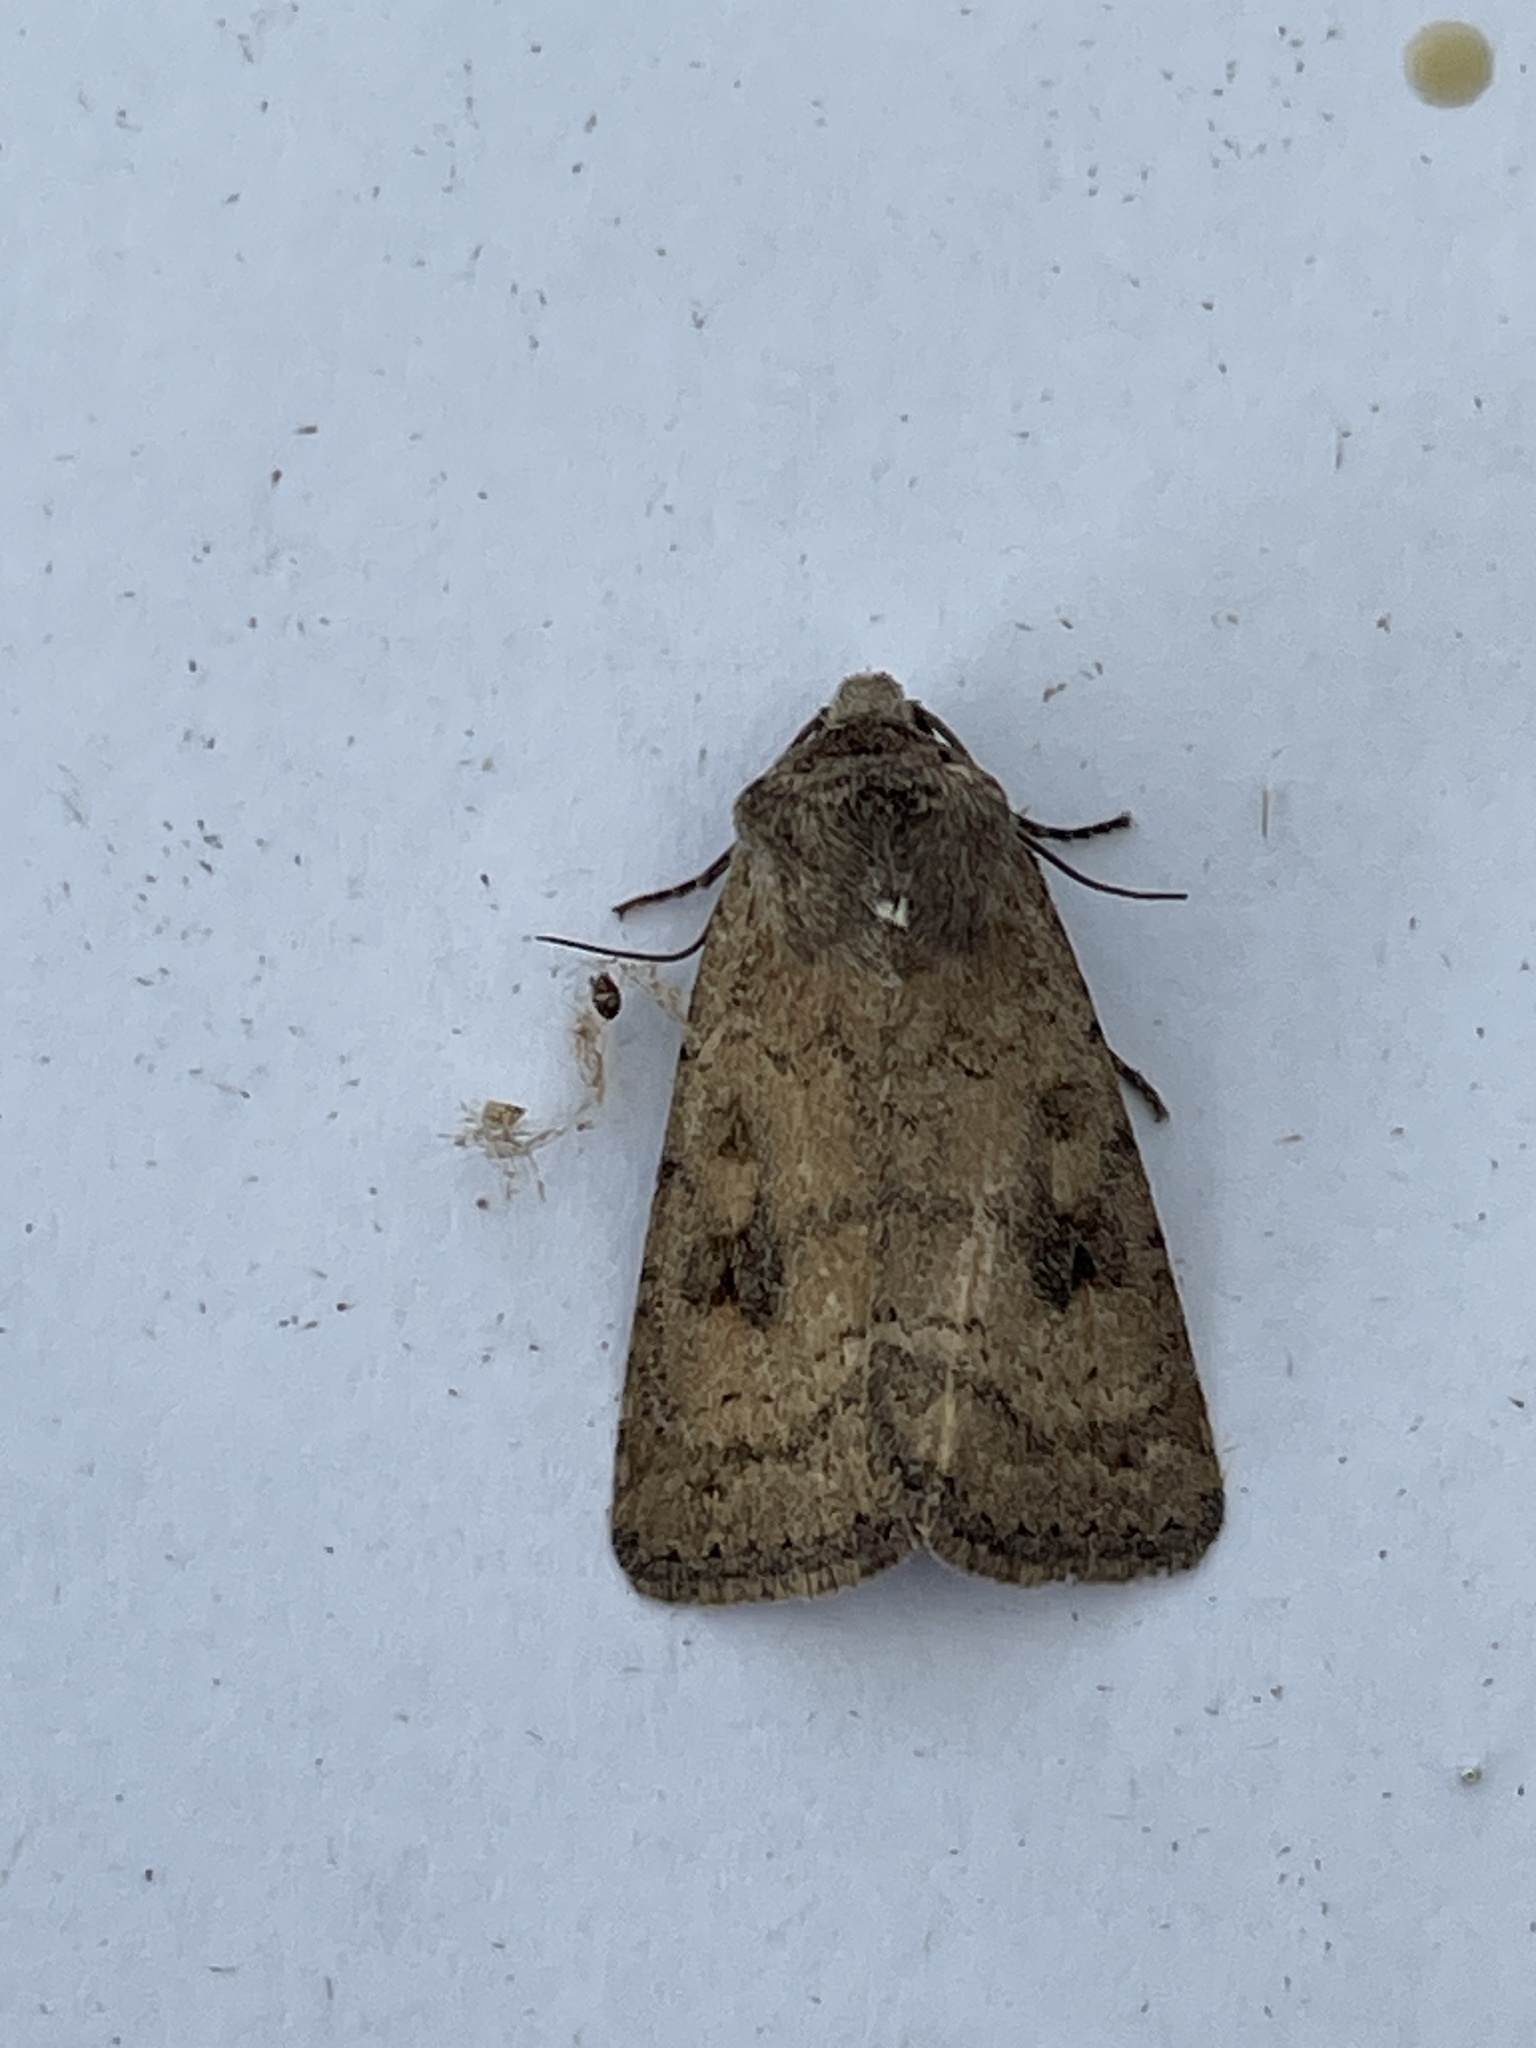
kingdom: Animalia
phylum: Arthropoda
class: Insecta
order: Lepidoptera
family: Noctuidae
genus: Caradrina
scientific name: Caradrina morpheus
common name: Mottled rustic
